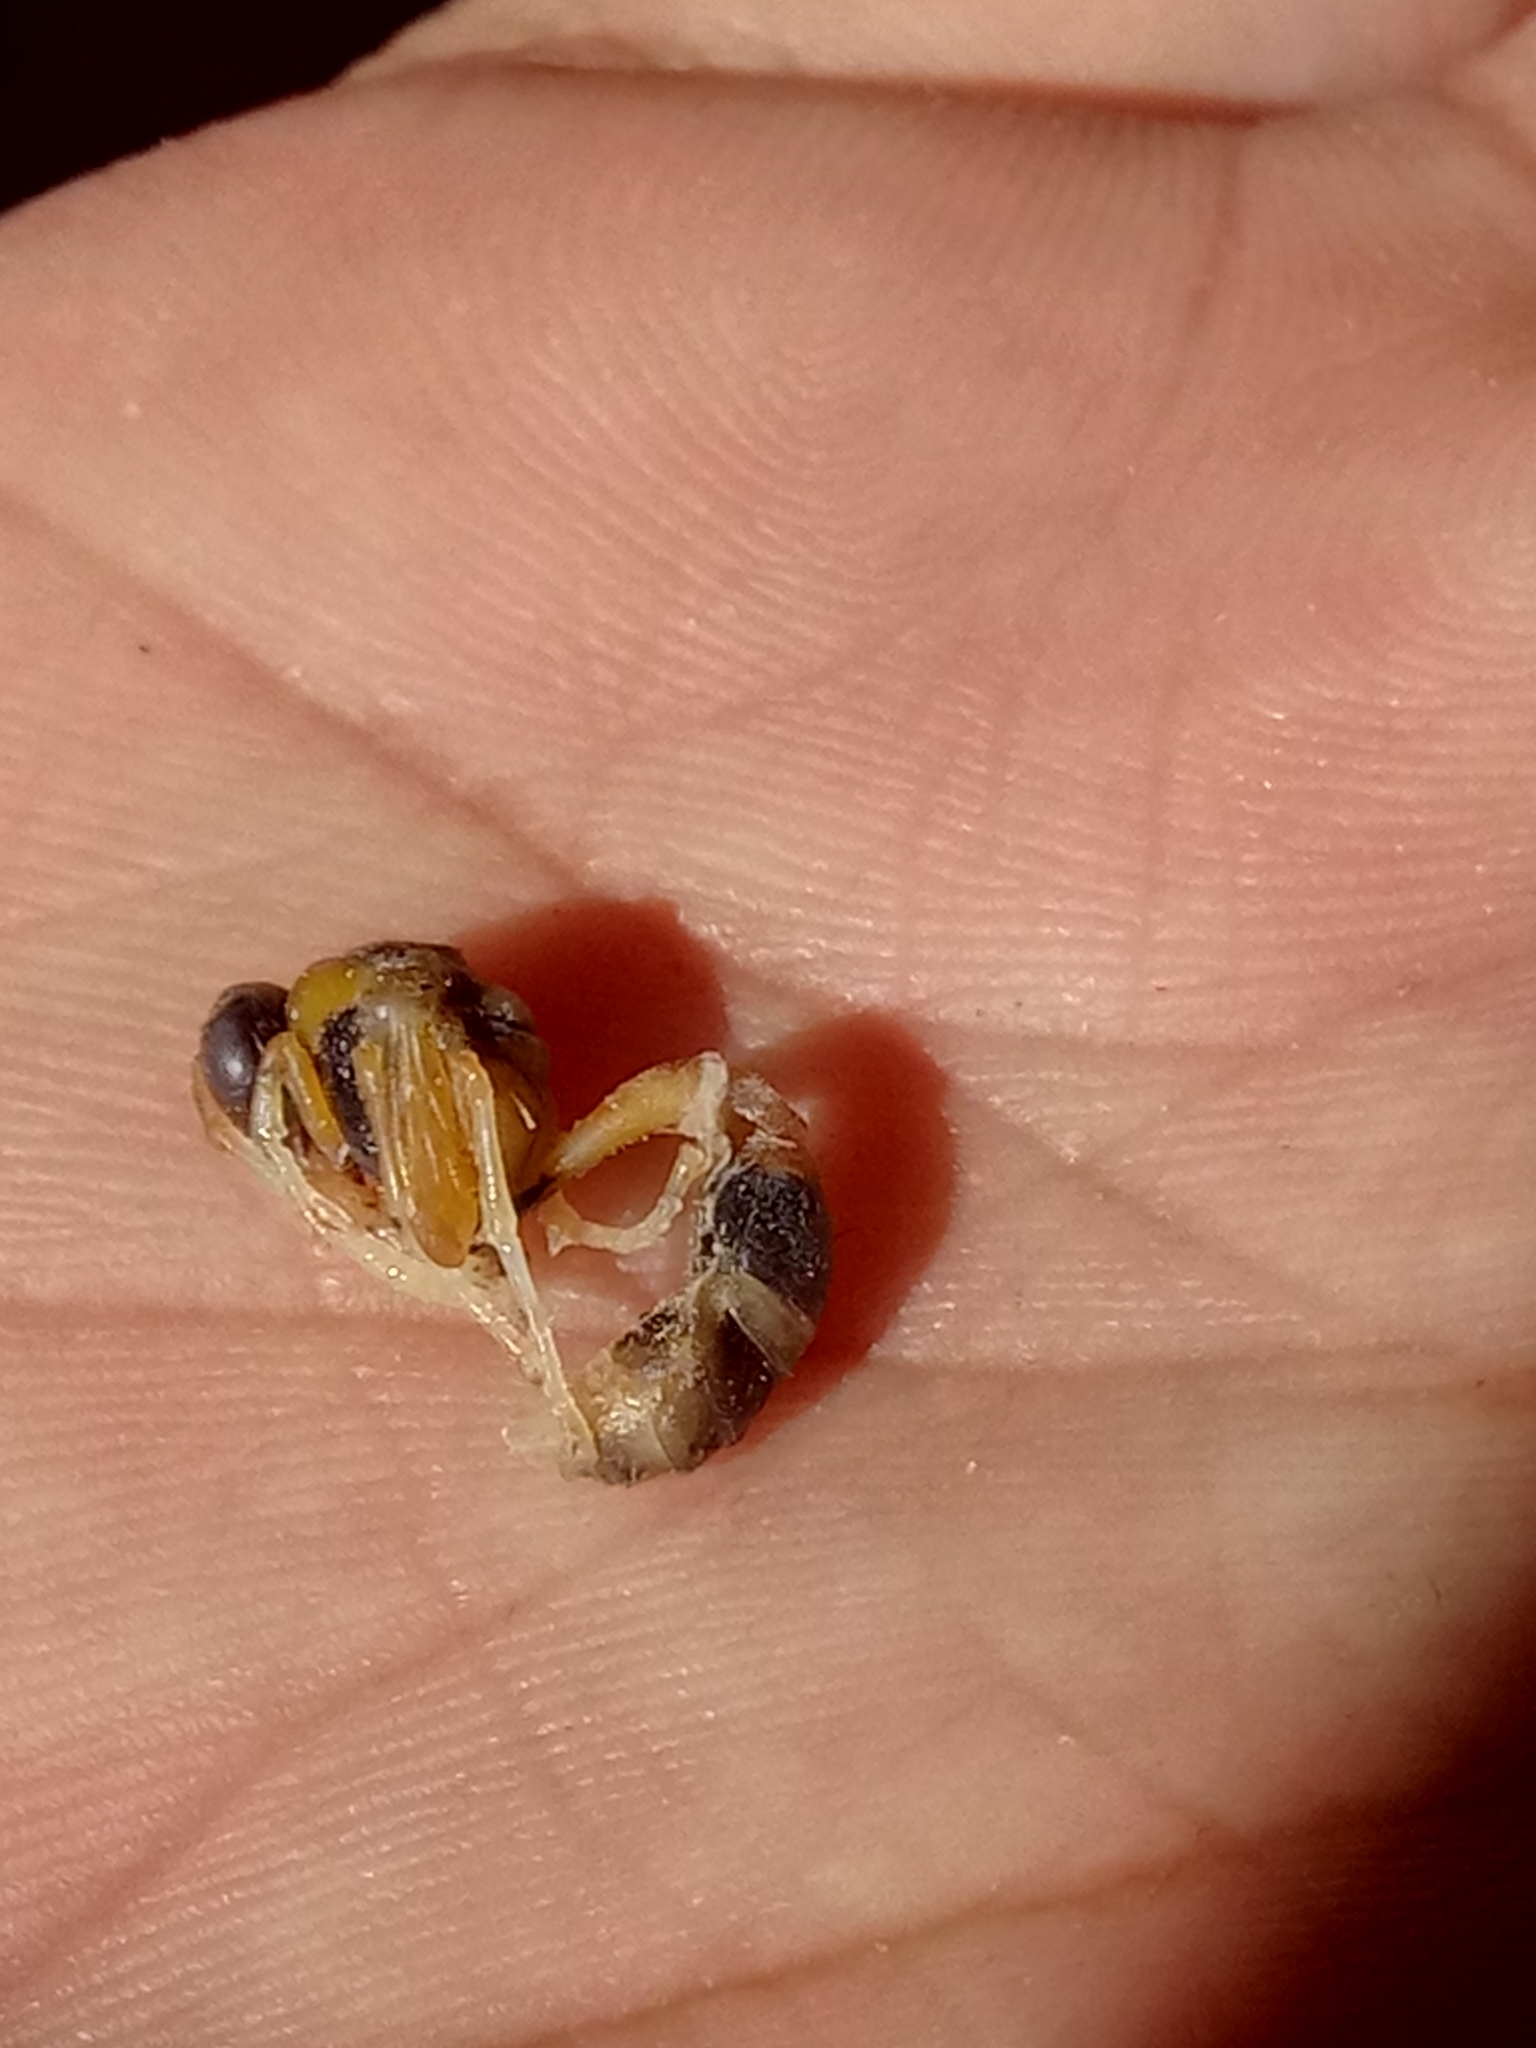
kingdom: Animalia
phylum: Arthropoda
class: Insecta
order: Hymenoptera
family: Eumenidae
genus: Delta
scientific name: Delta
